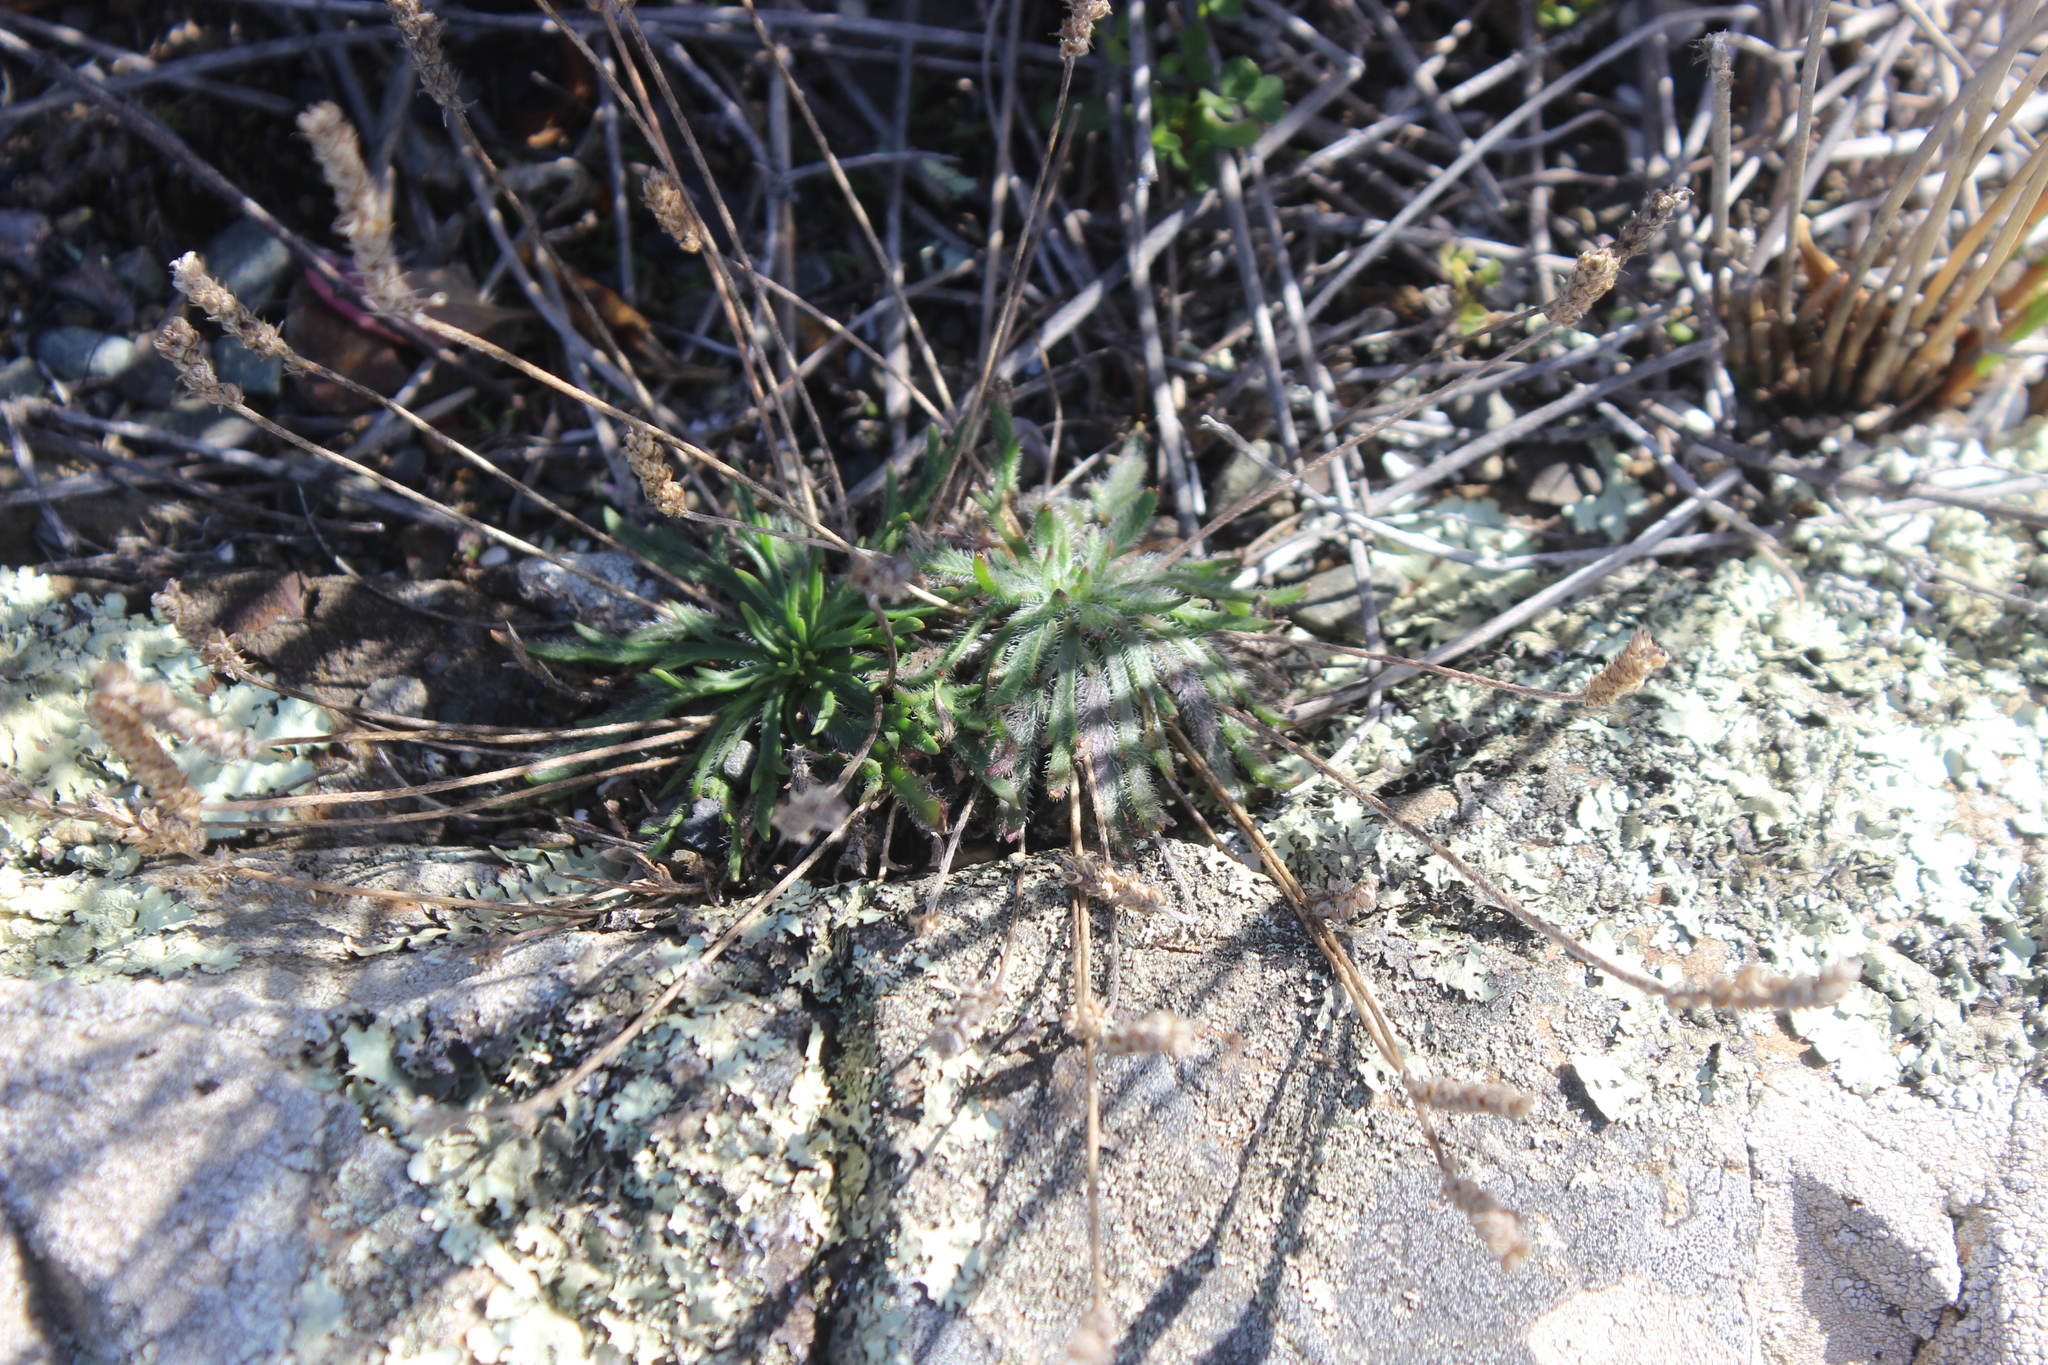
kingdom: Plantae
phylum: Tracheophyta
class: Magnoliopsida
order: Lamiales
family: Plantaginaceae
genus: Plantago
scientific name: Plantago coronopus
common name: Buck's-horn plantain
